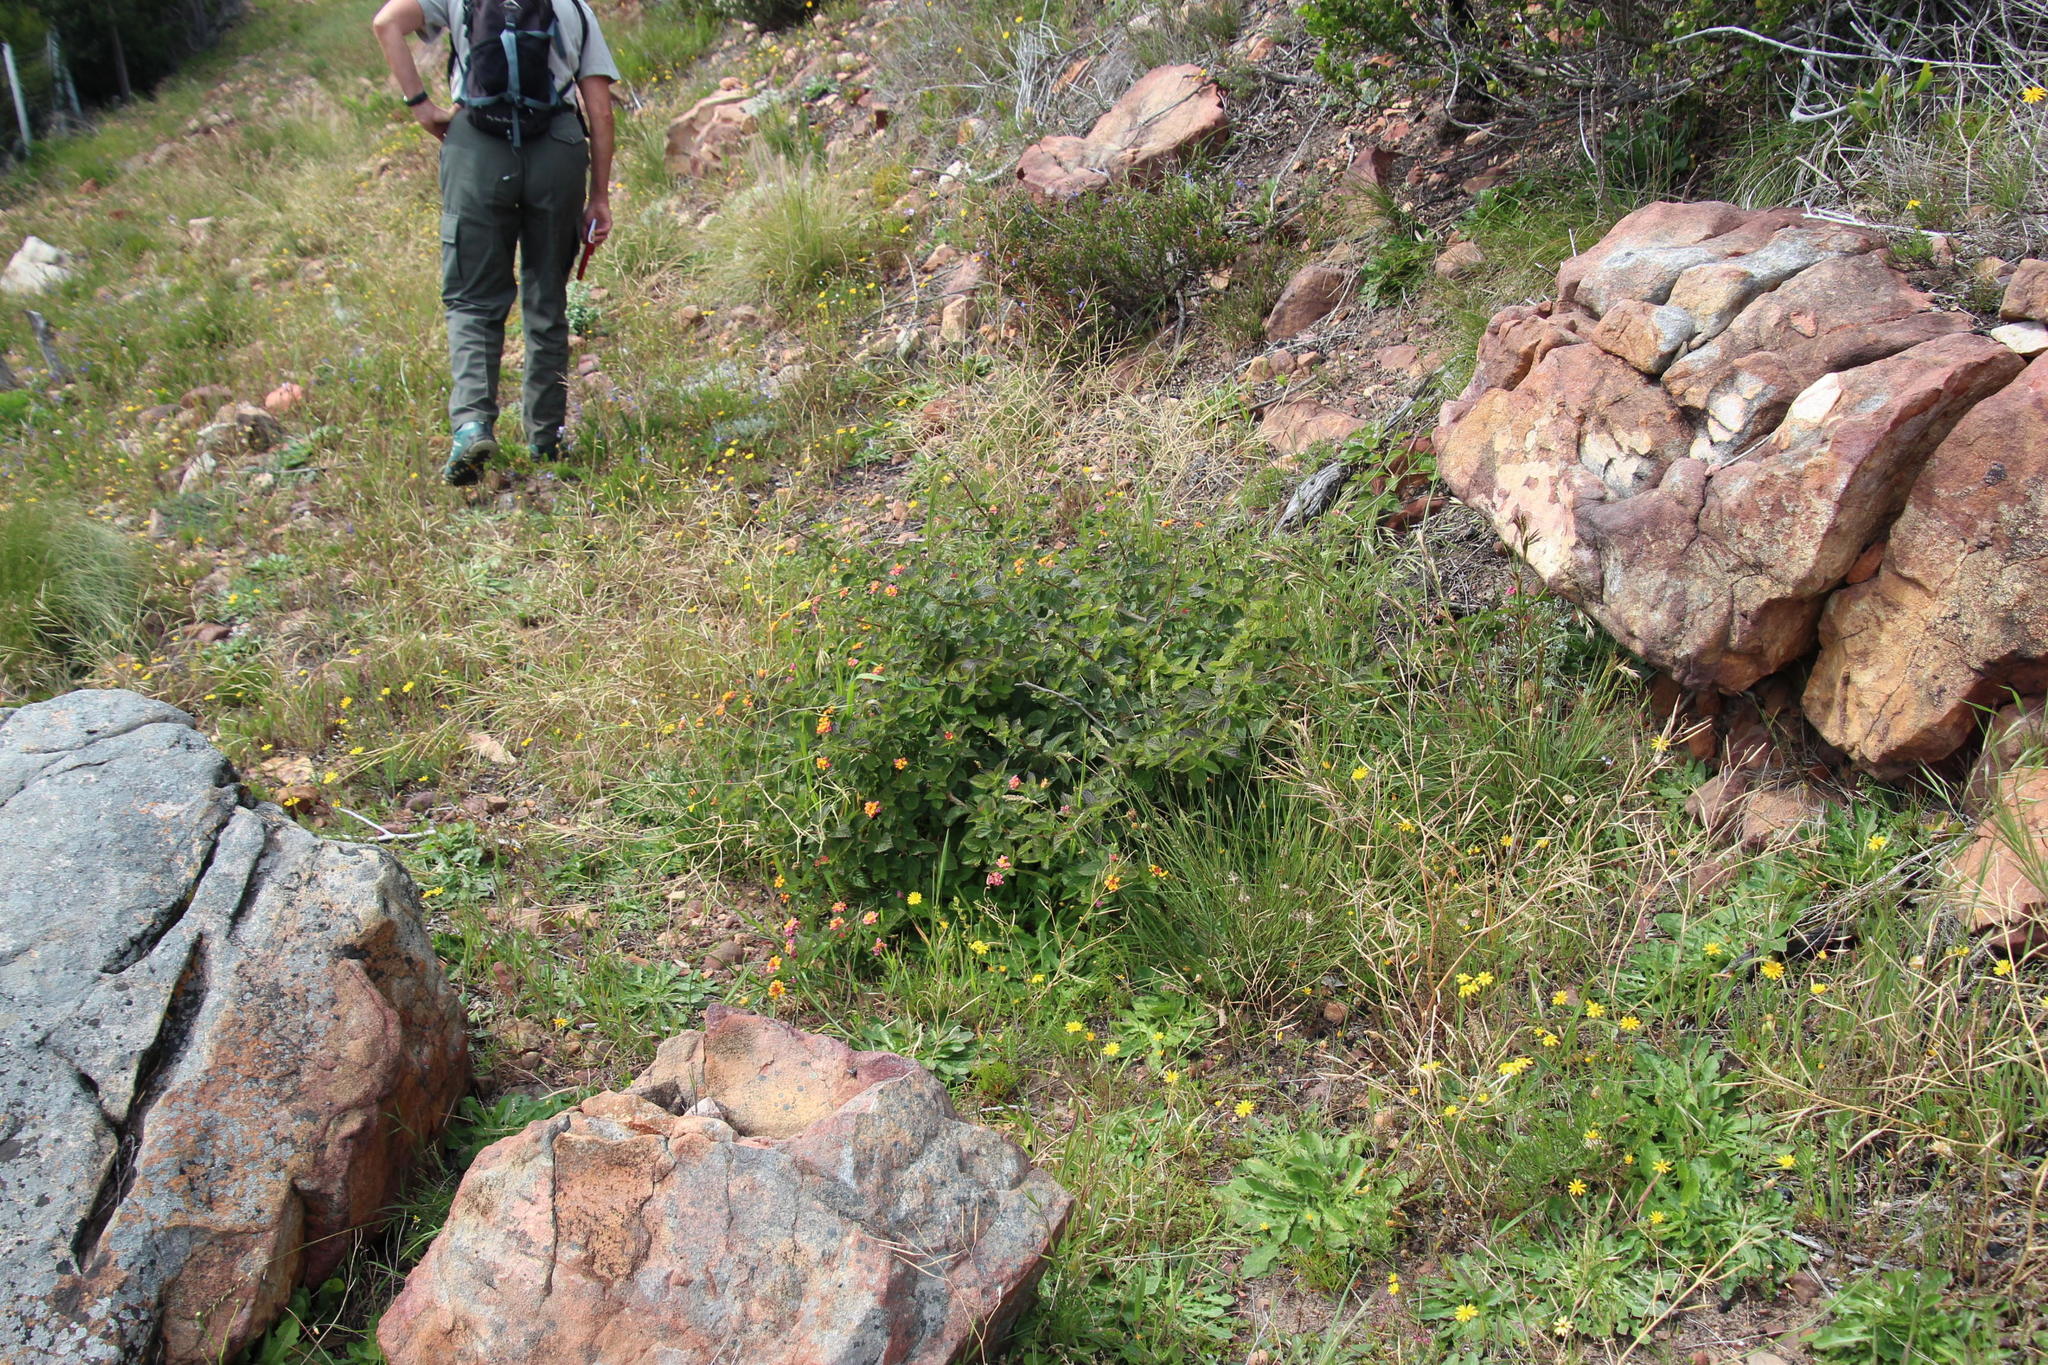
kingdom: Plantae
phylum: Tracheophyta
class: Magnoliopsida
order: Lamiales
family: Verbenaceae
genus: Lantana
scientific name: Lantana camara
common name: Lantana
